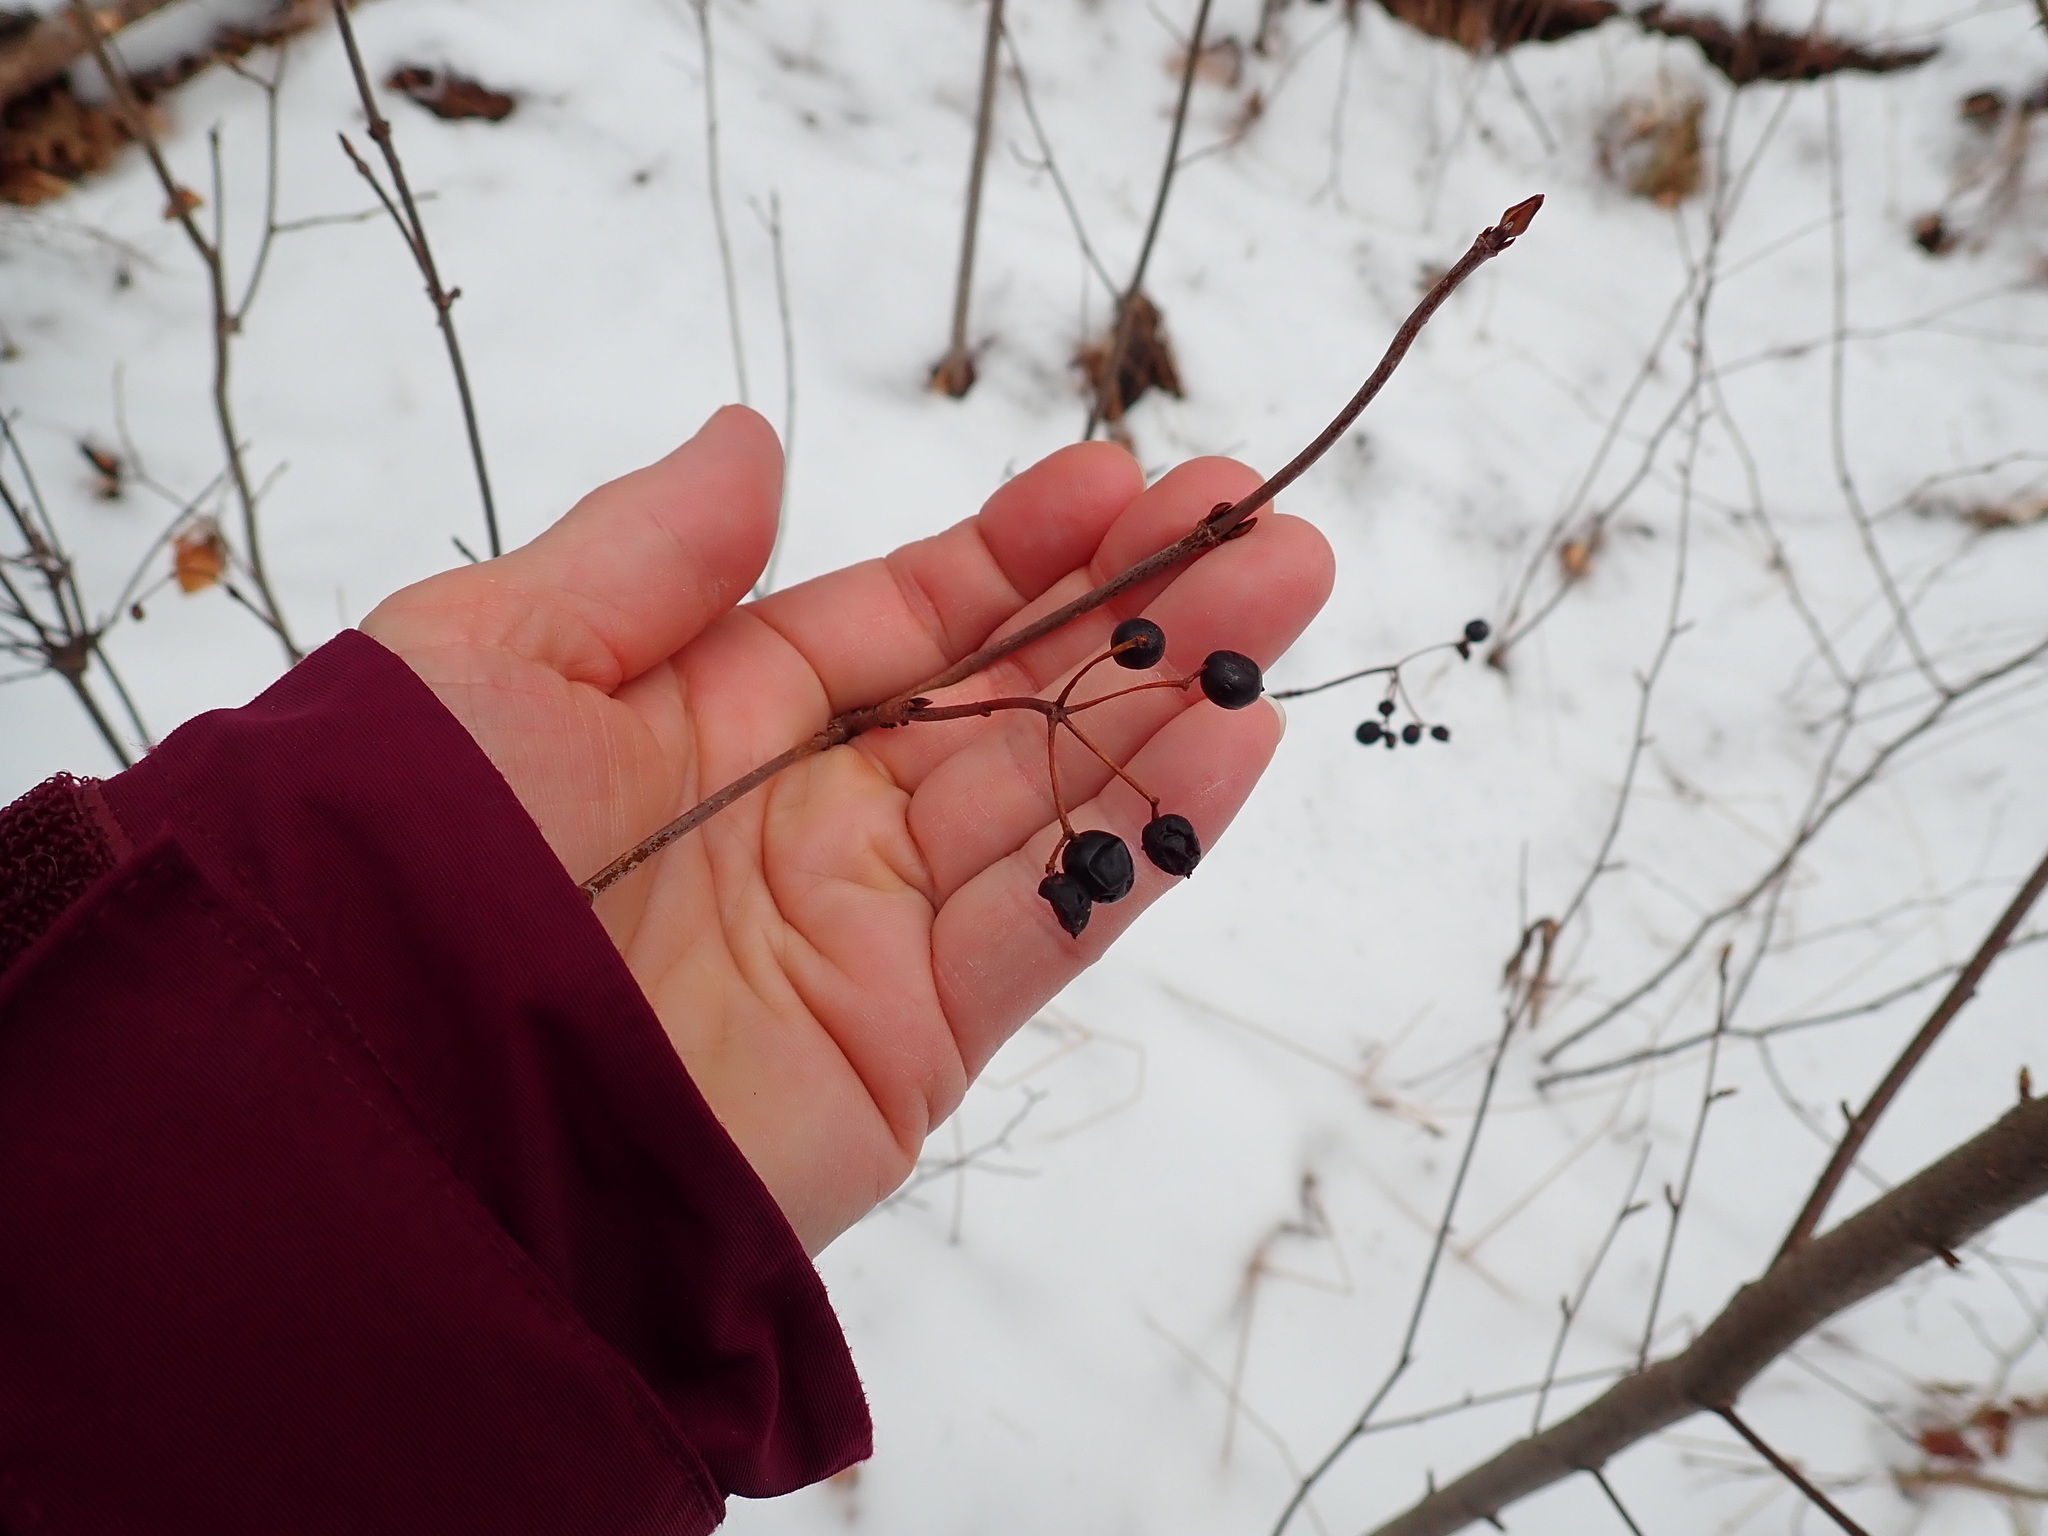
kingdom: Plantae
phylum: Tracheophyta
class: Magnoliopsida
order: Dipsacales
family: Viburnaceae
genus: Viburnum
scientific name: Viburnum acerifolium
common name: Dockmackie
